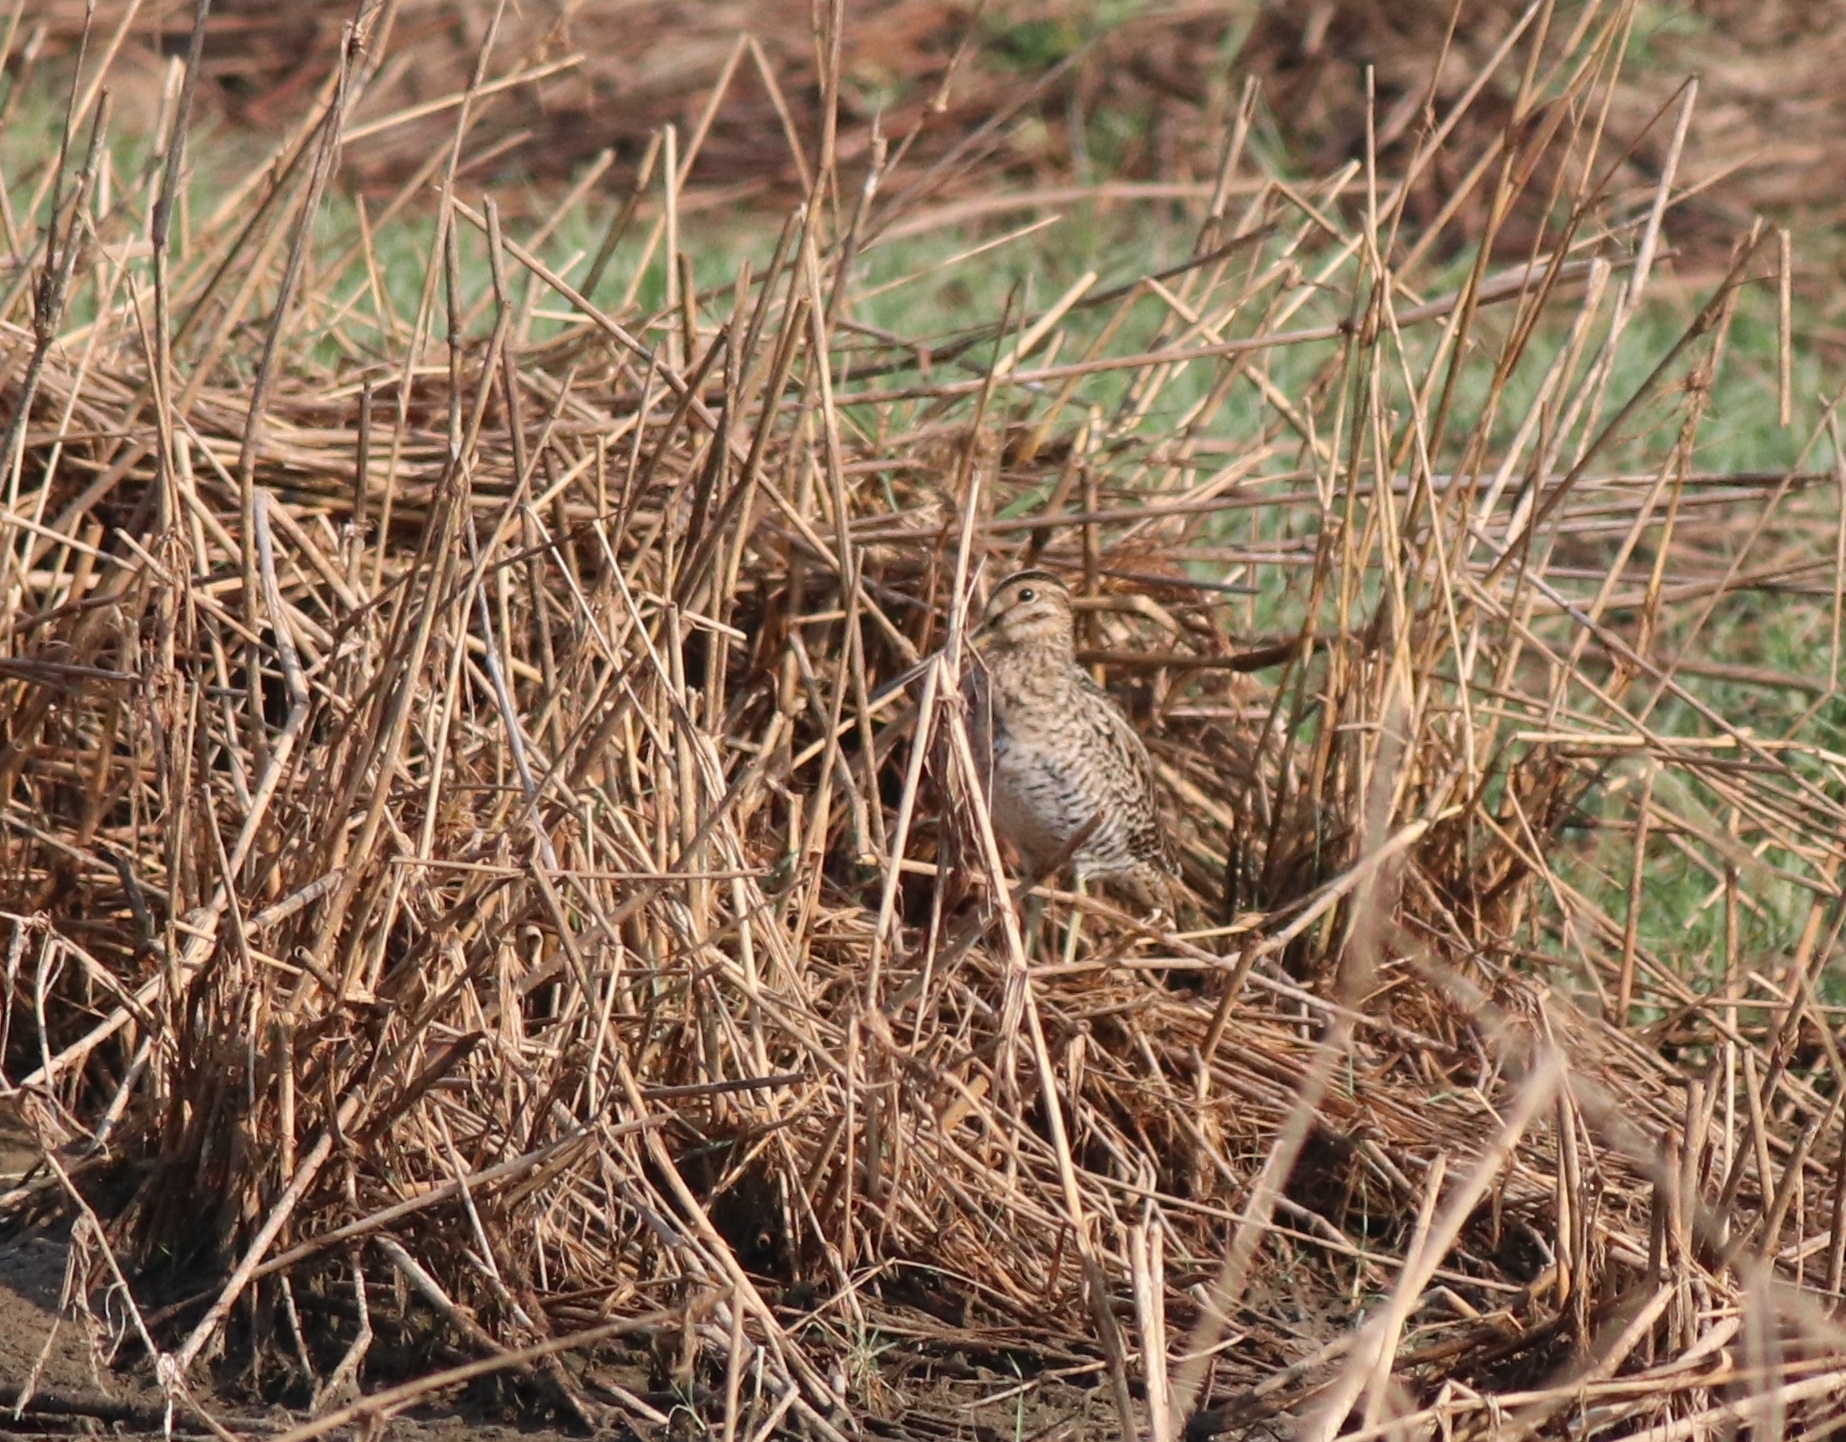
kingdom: Animalia
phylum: Chordata
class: Aves
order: Charadriiformes
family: Scolopacidae
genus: Gallinago
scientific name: Gallinago stenura
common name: Pin-tailed snipe
